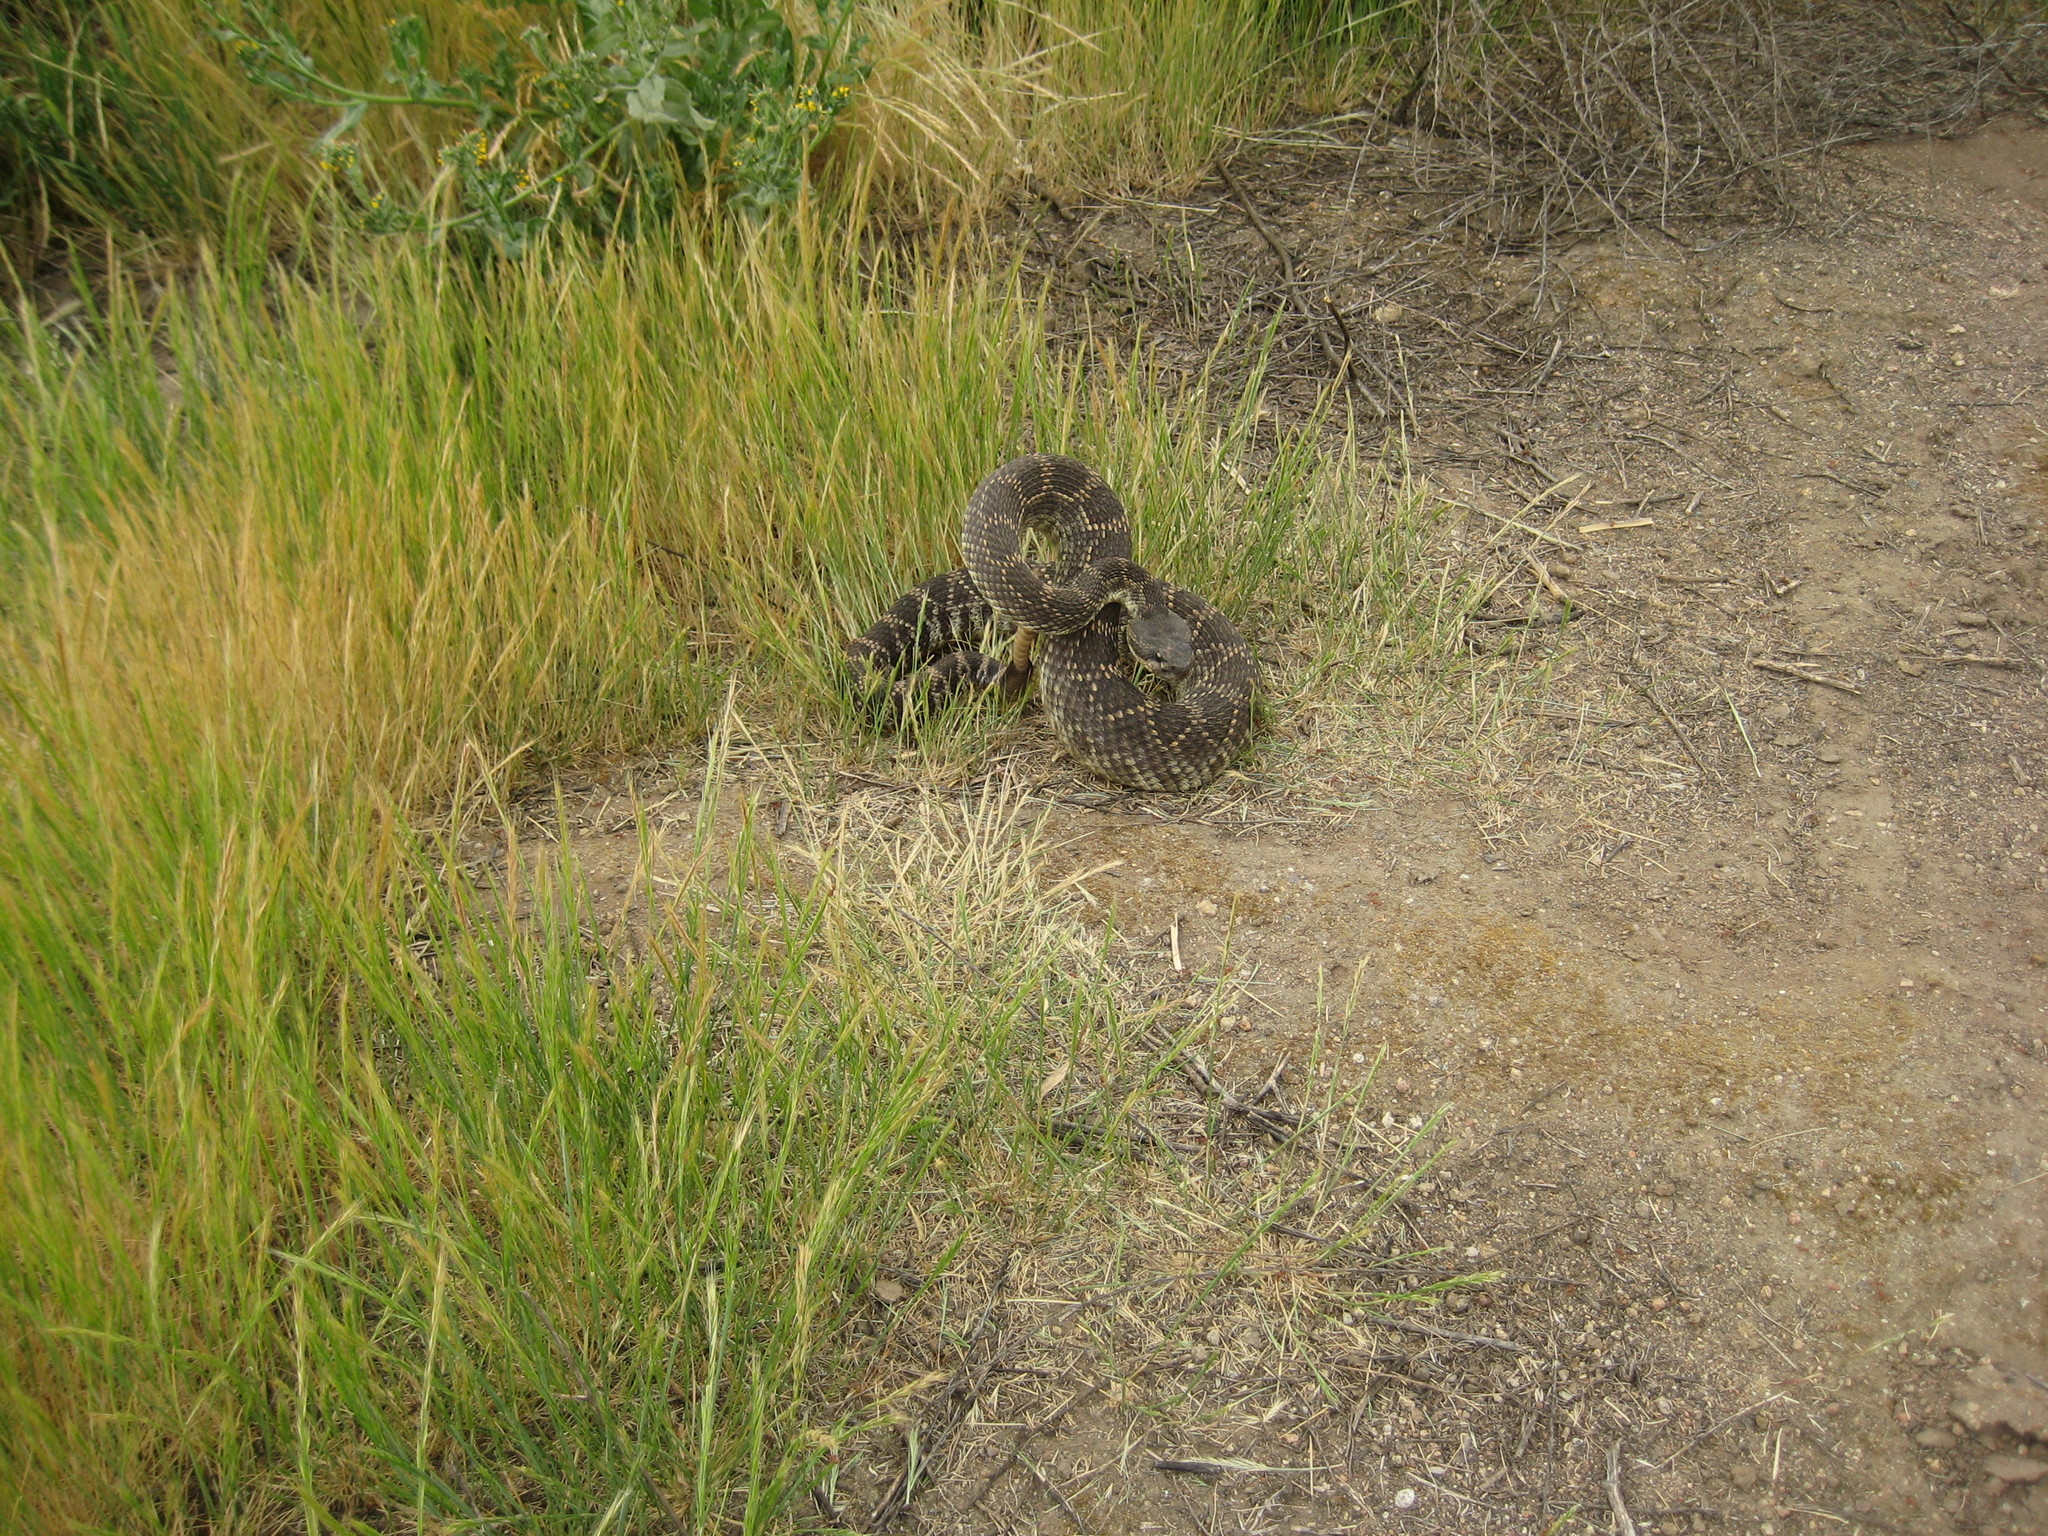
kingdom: Animalia
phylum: Chordata
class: Squamata
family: Viperidae
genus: Crotalus
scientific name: Crotalus oreganus
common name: Abyssus
